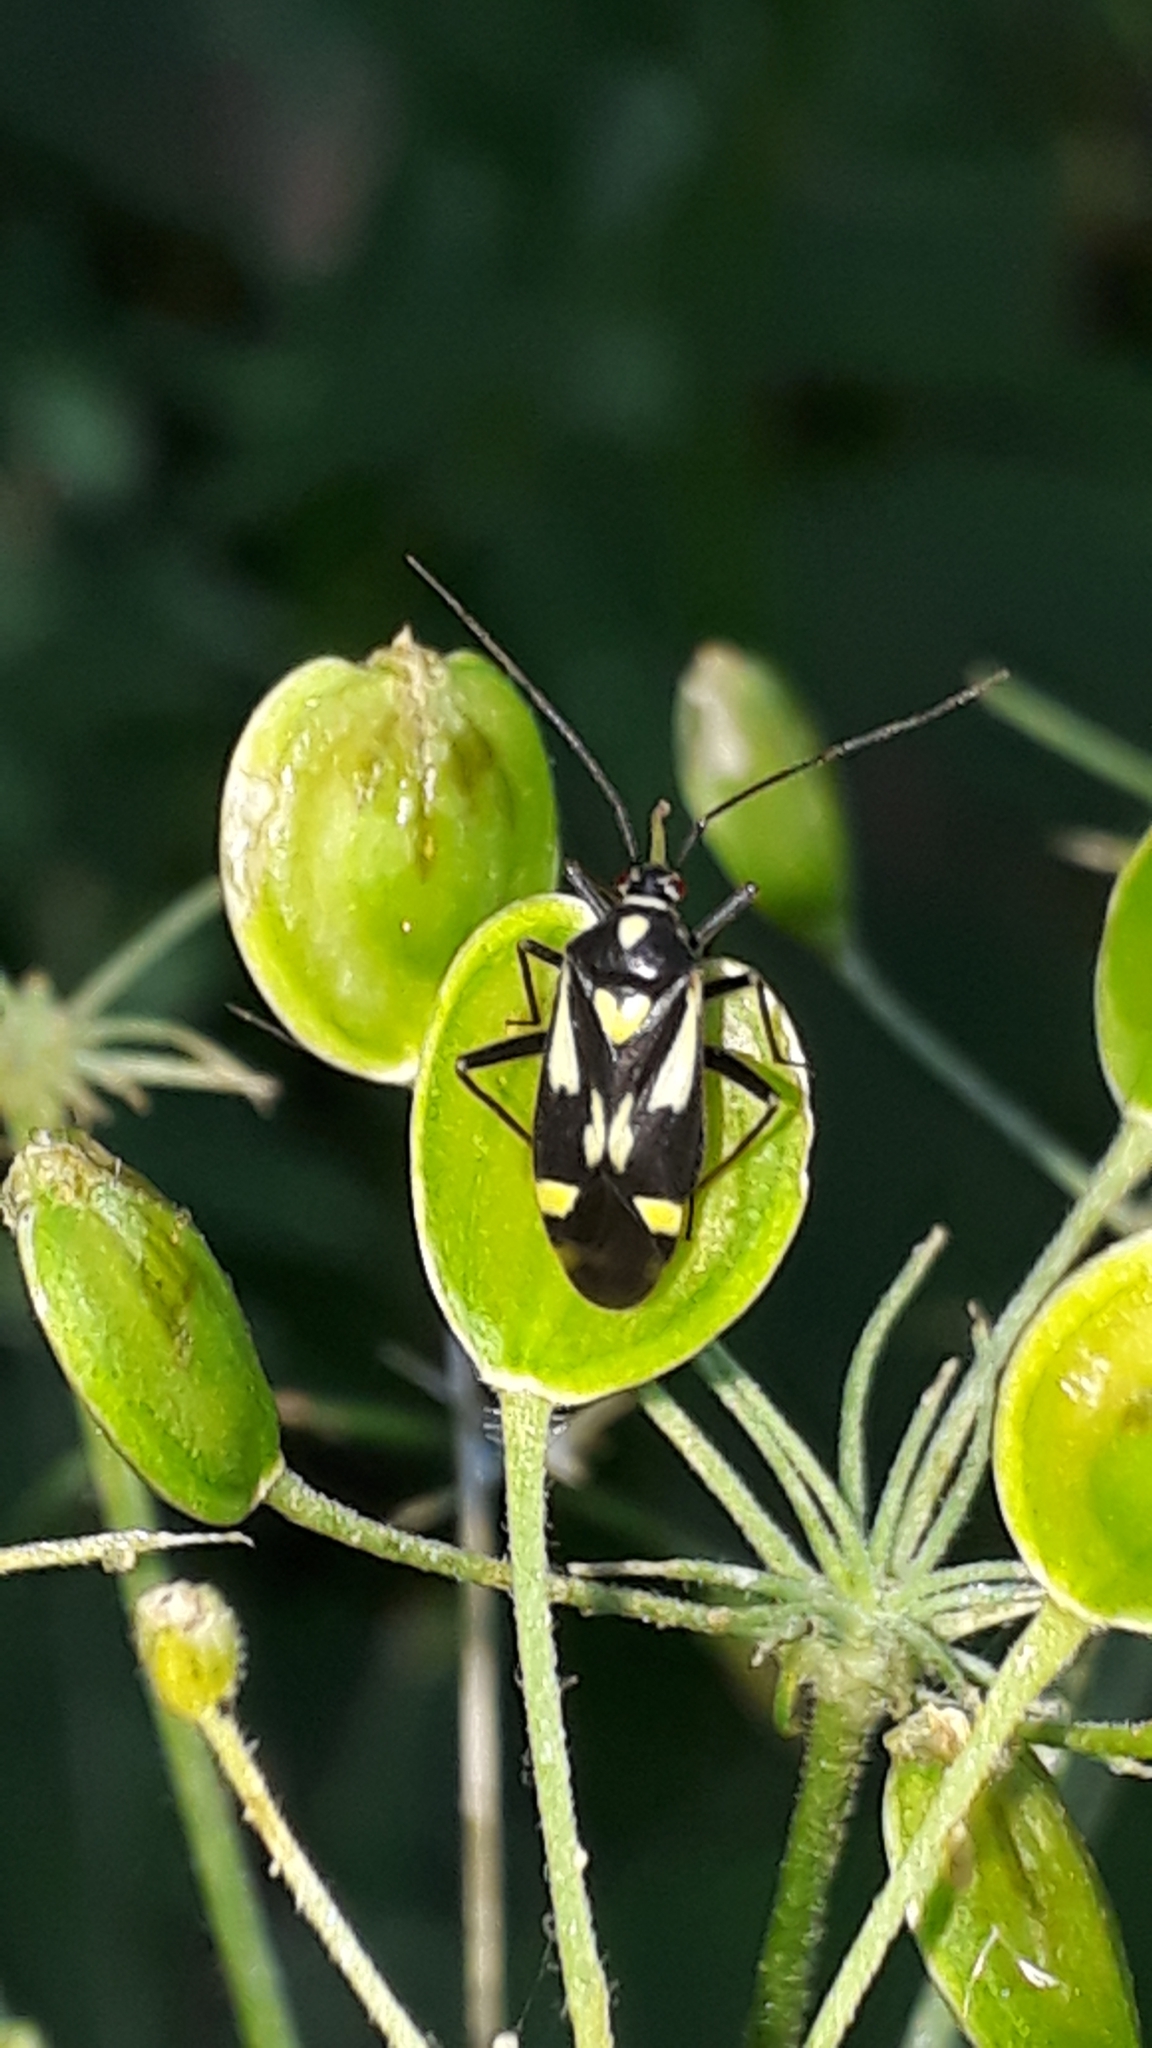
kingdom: Animalia
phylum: Arthropoda
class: Insecta
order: Hemiptera
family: Miridae
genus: Grypocoris
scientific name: Grypocoris sexguttatus
